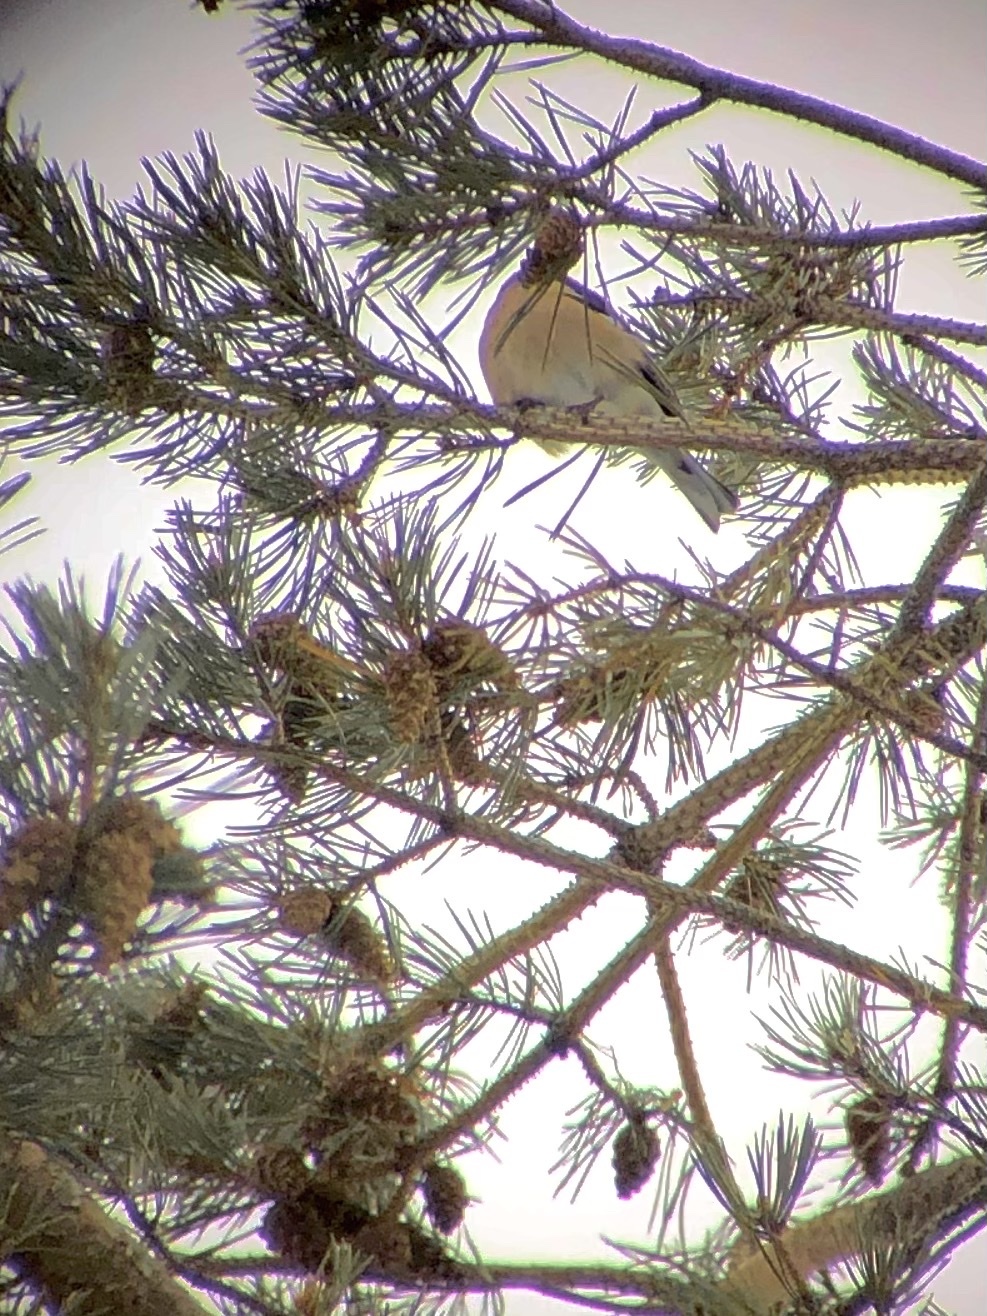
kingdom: Animalia
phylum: Chordata
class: Aves
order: Passeriformes
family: Fringillidae
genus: Fringilla
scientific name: Fringilla coelebs
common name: Common chaffinch
